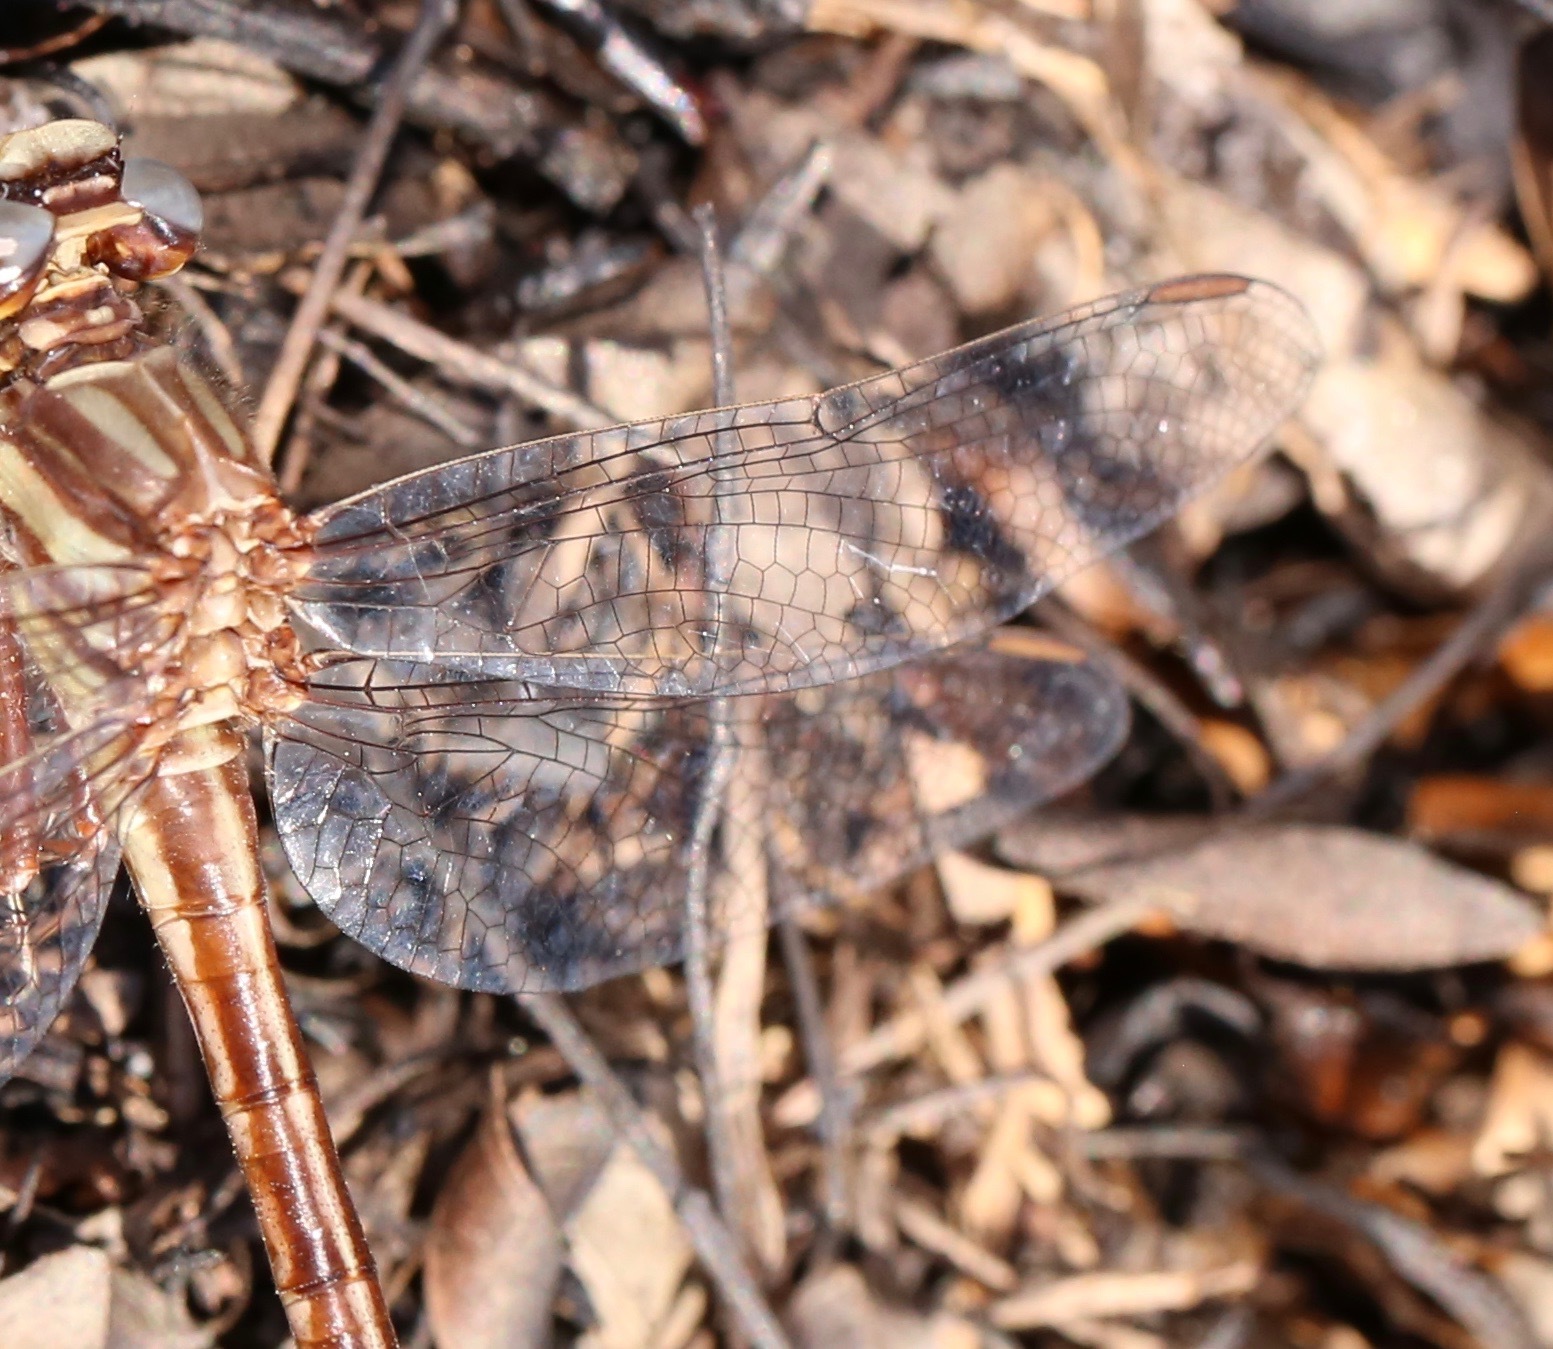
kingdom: Animalia
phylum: Arthropoda
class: Insecta
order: Odonata
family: Gomphidae
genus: Phanogomphus
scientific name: Phanogomphus cavillaris
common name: Sandhill clubtail
